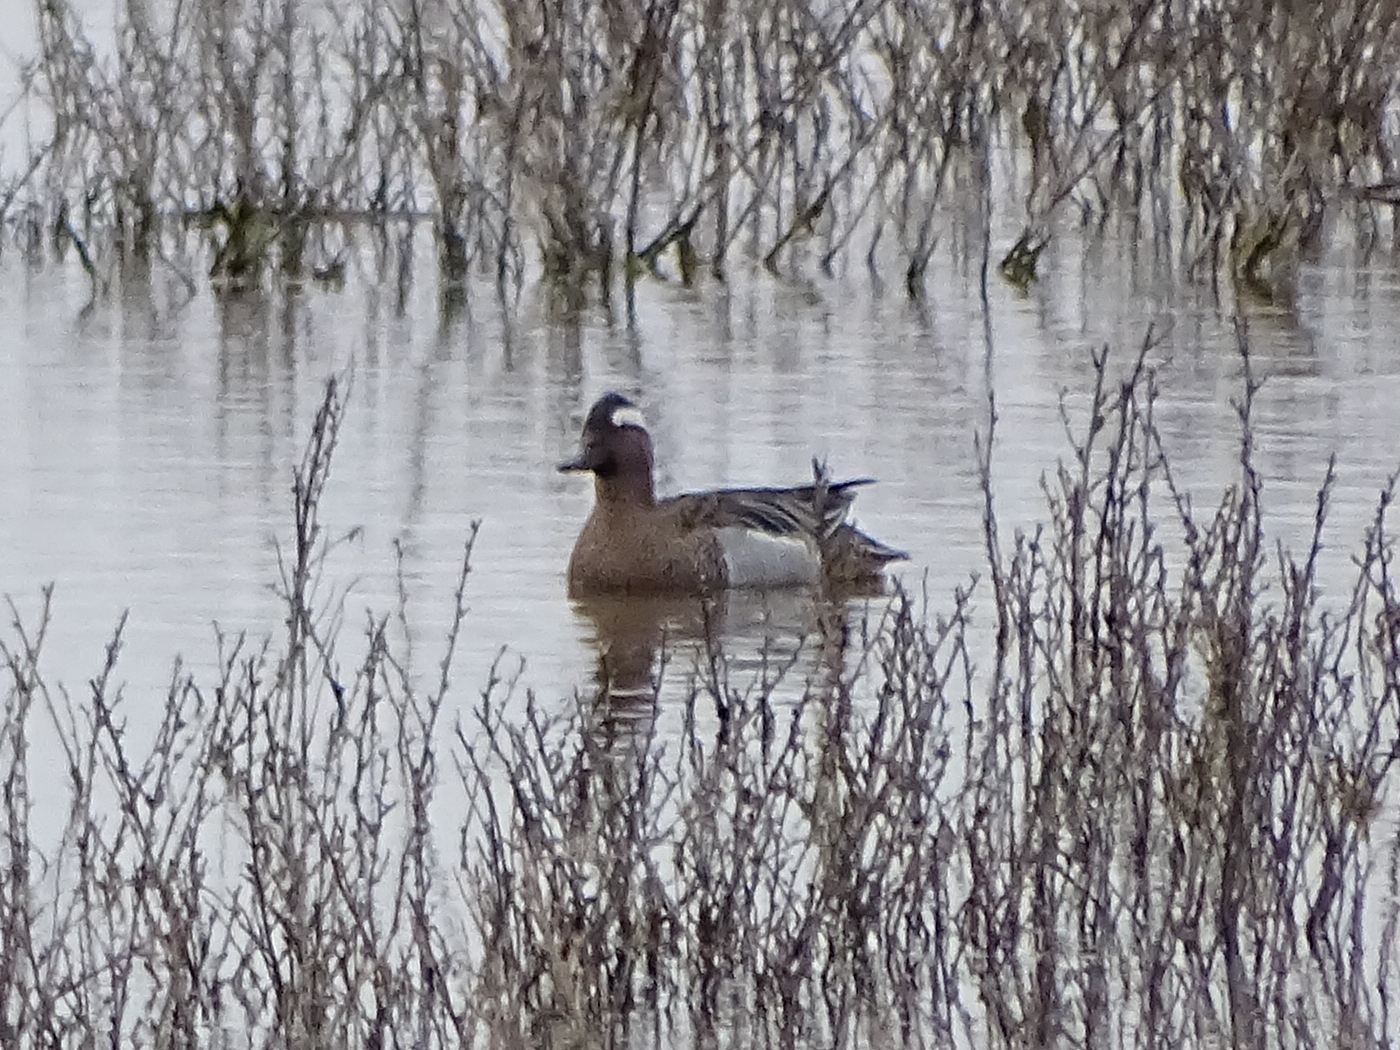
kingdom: Animalia
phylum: Chordata
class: Aves
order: Anseriformes
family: Anatidae
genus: Spatula
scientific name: Spatula querquedula
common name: Garganey
